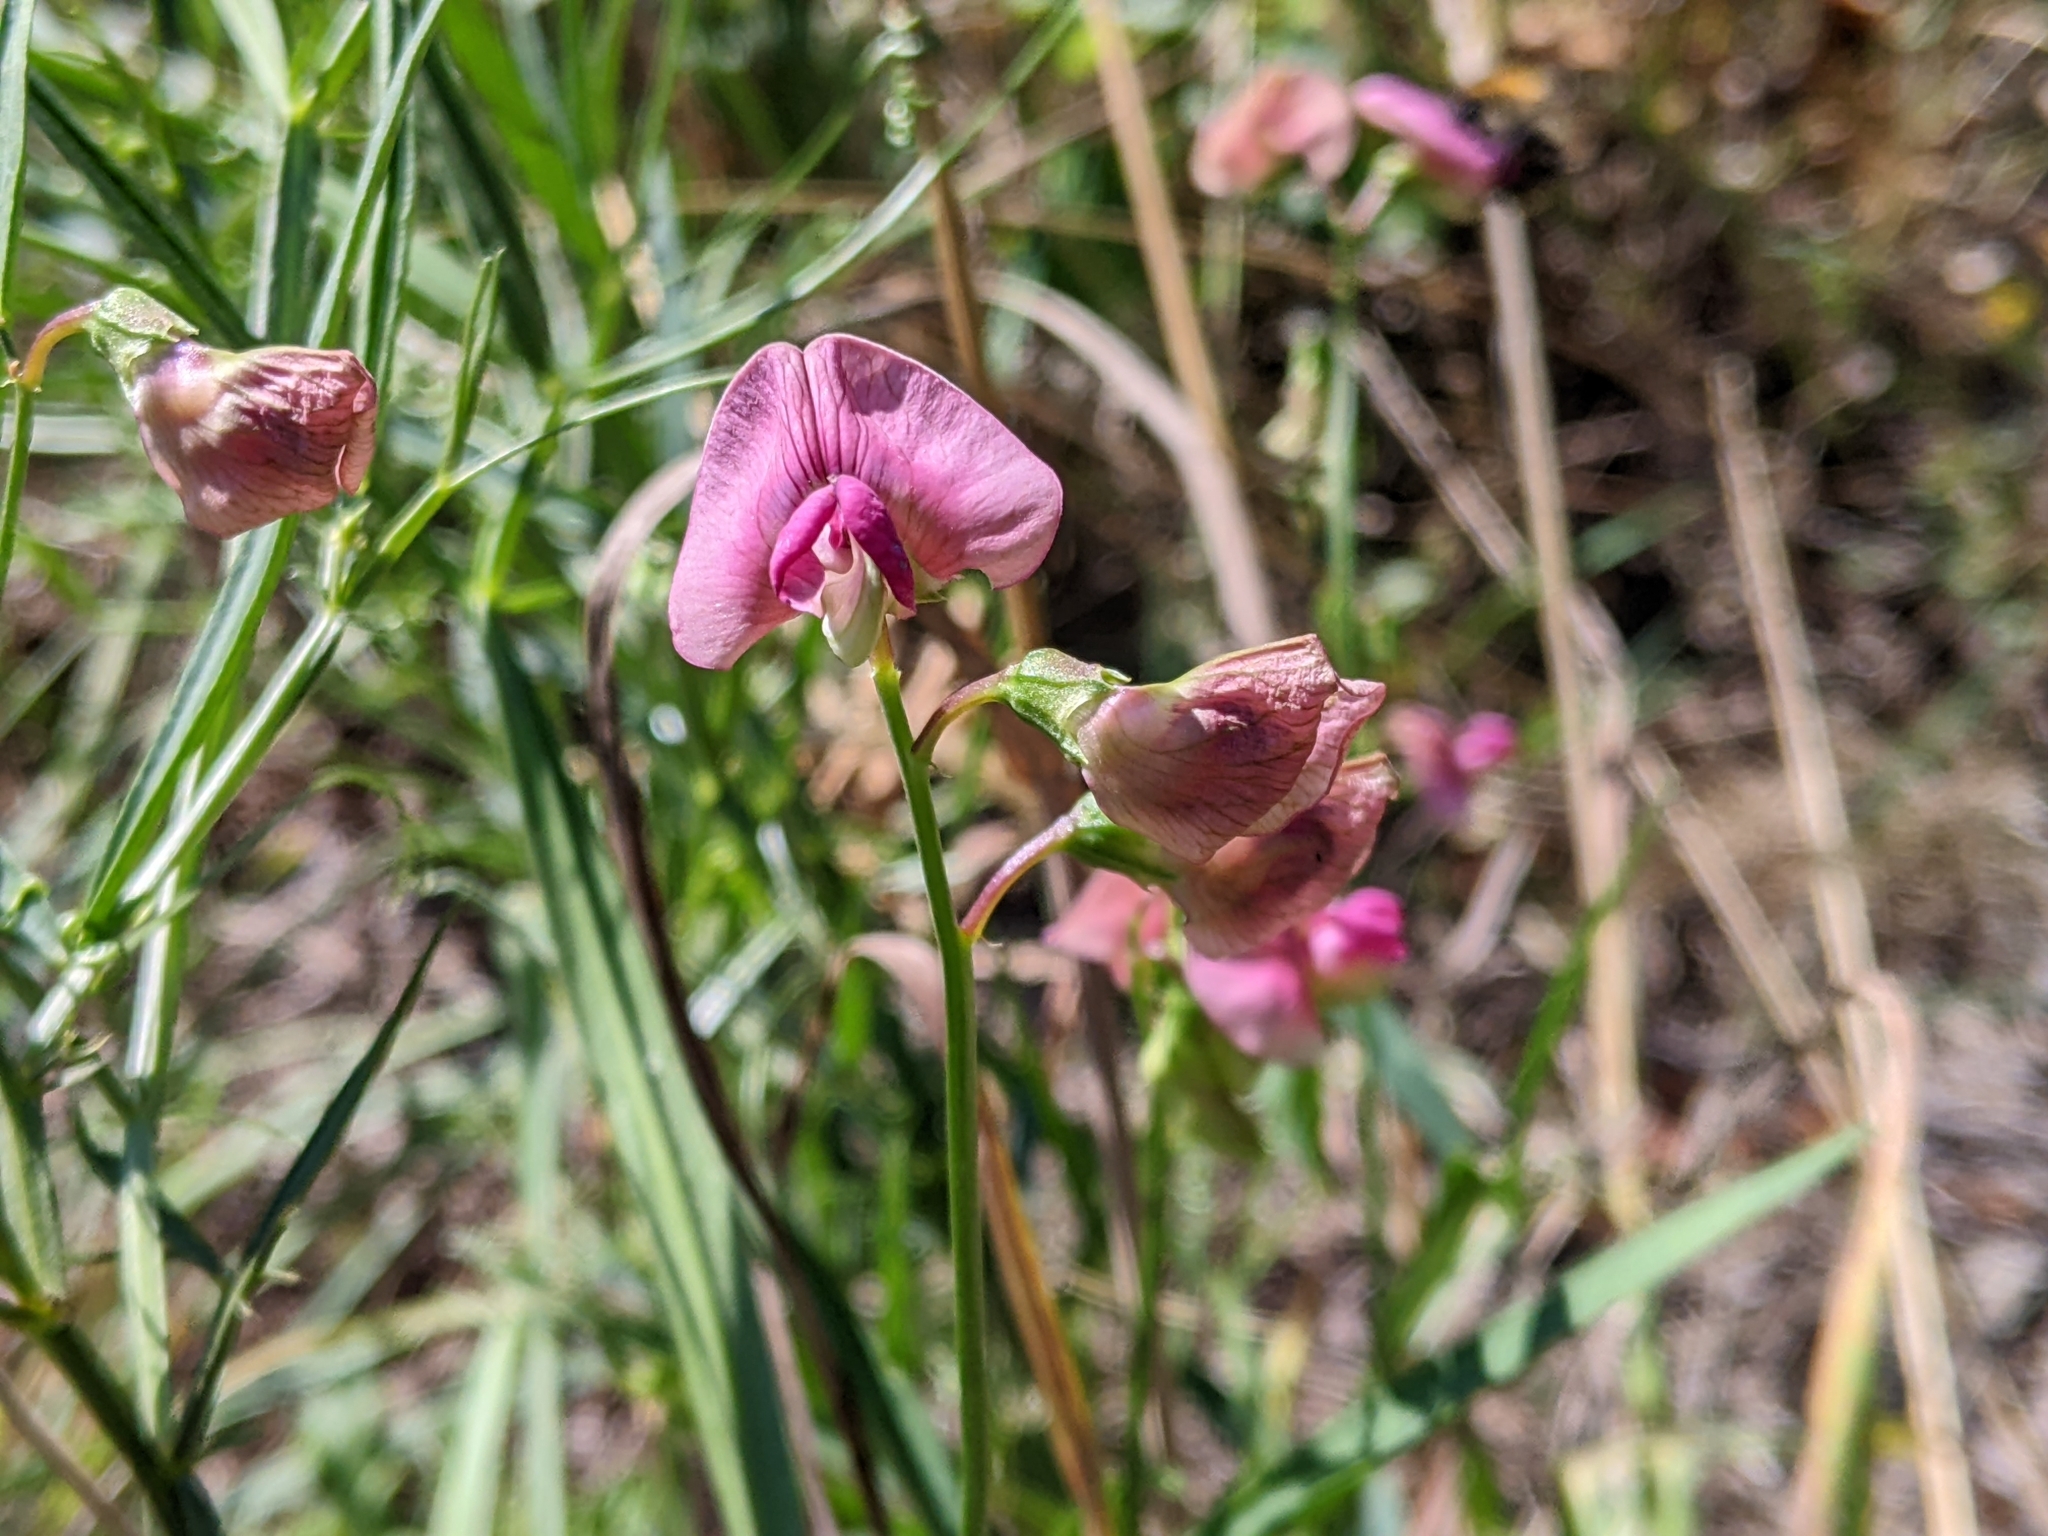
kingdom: Plantae
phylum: Tracheophyta
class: Magnoliopsida
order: Fabales
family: Fabaceae
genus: Lathyrus
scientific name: Lathyrus sylvestris
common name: Flat pea
